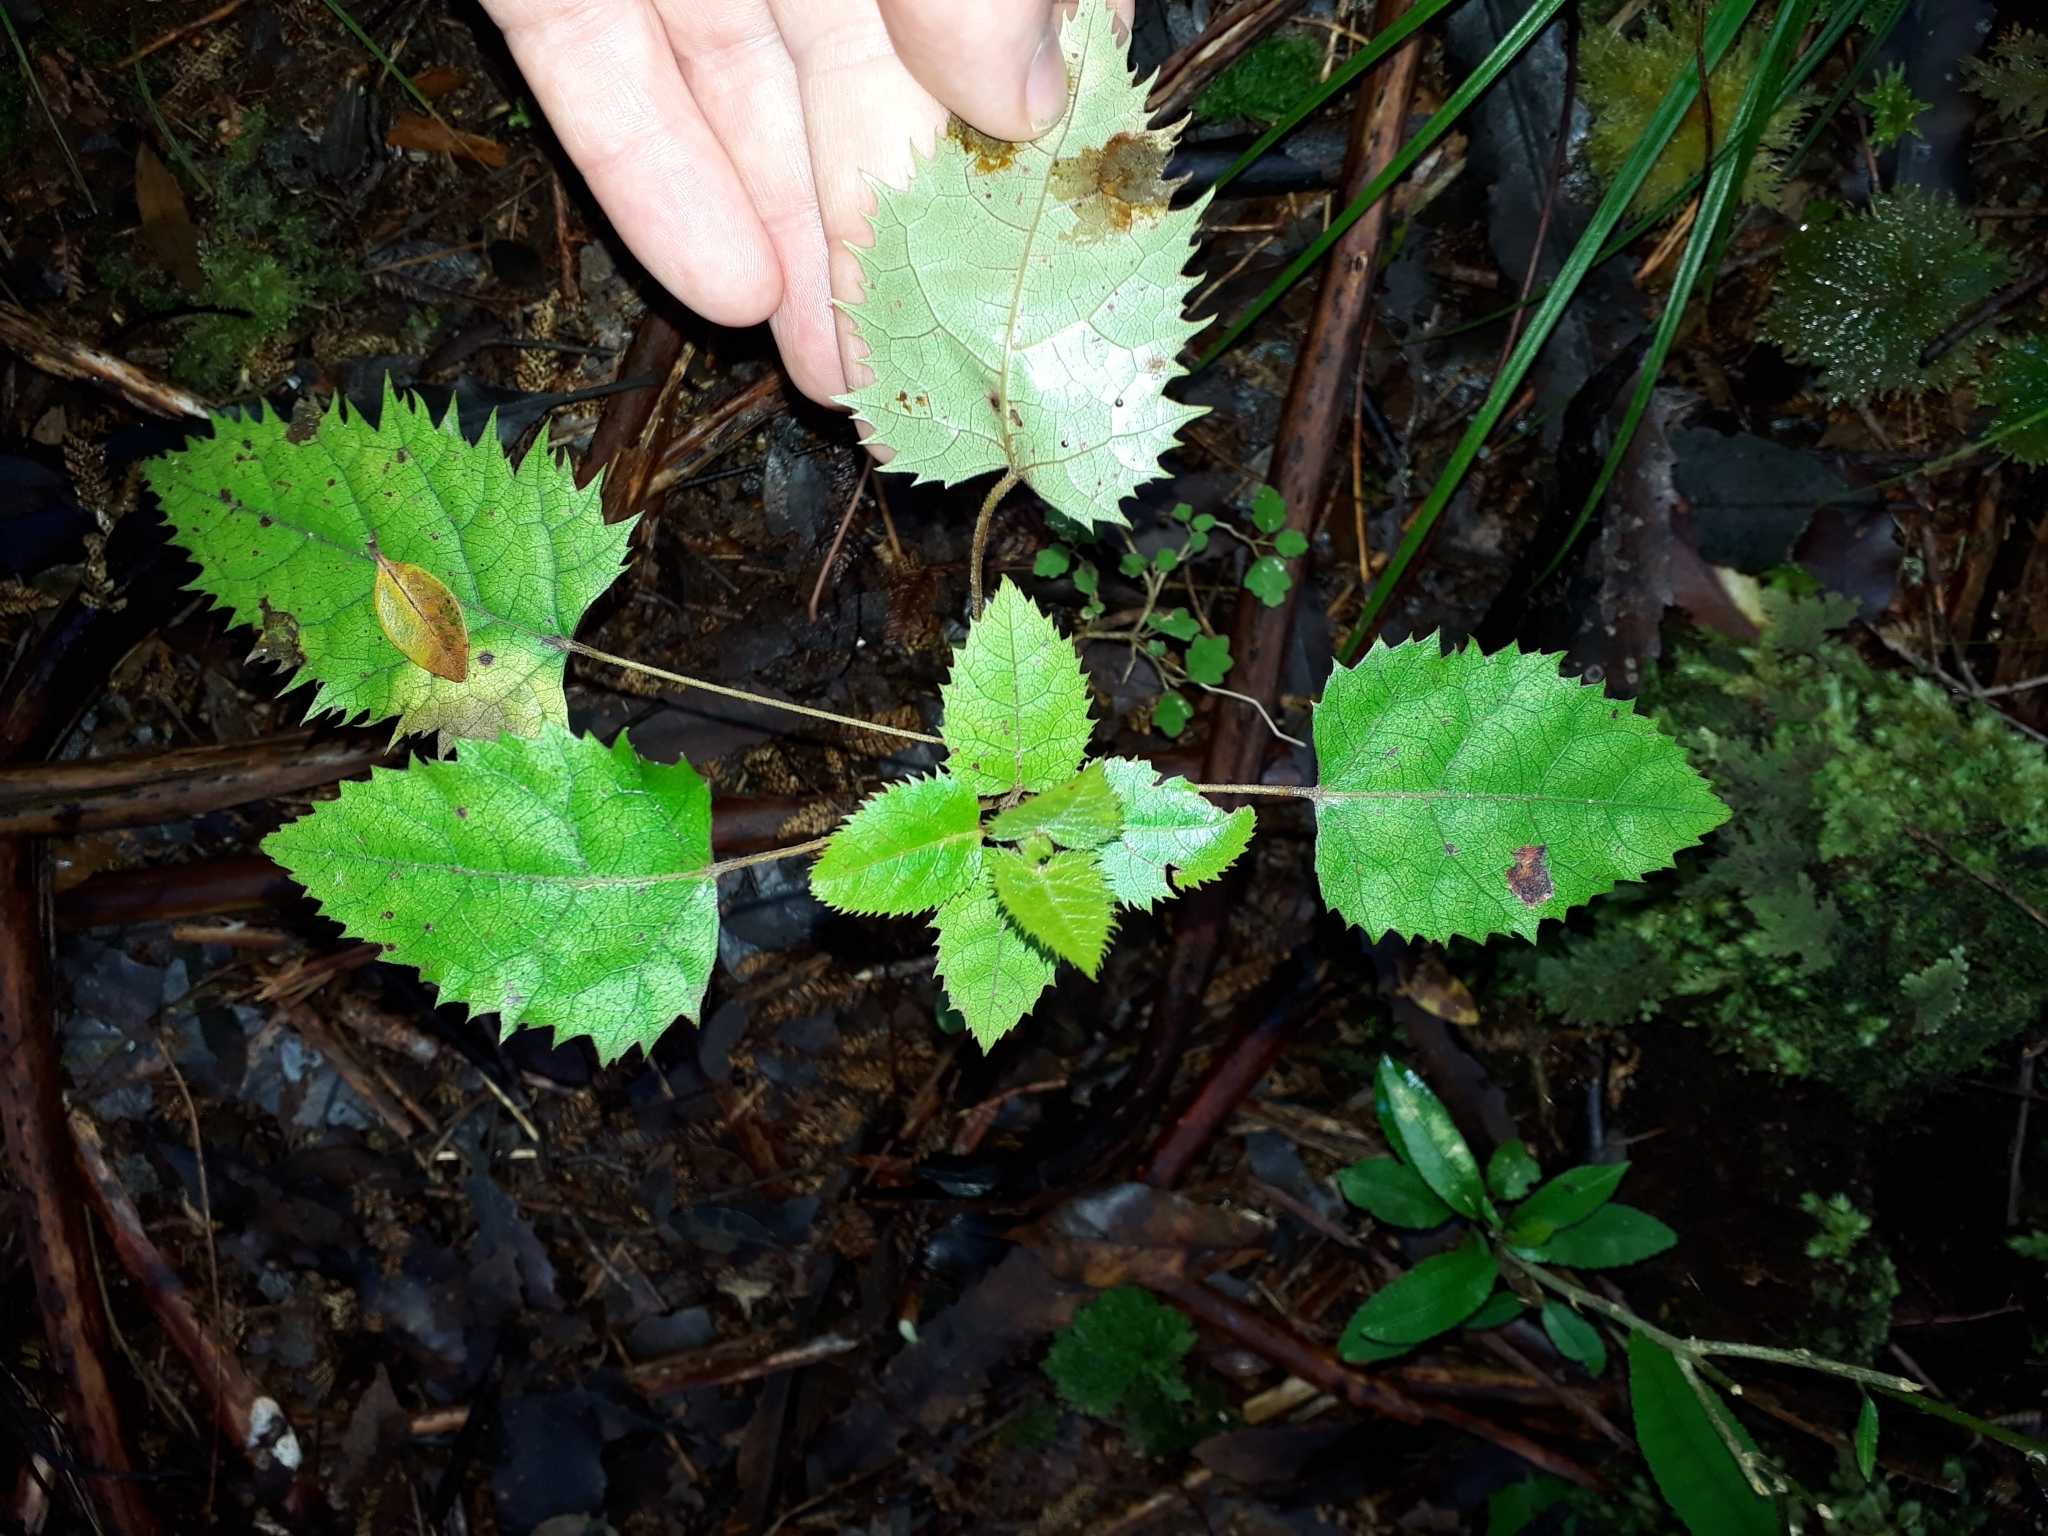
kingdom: Plantae
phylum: Tracheophyta
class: Magnoliopsida
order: Oxalidales
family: Elaeocarpaceae
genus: Aristotelia
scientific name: Aristotelia serrata
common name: New zealand wineberry
